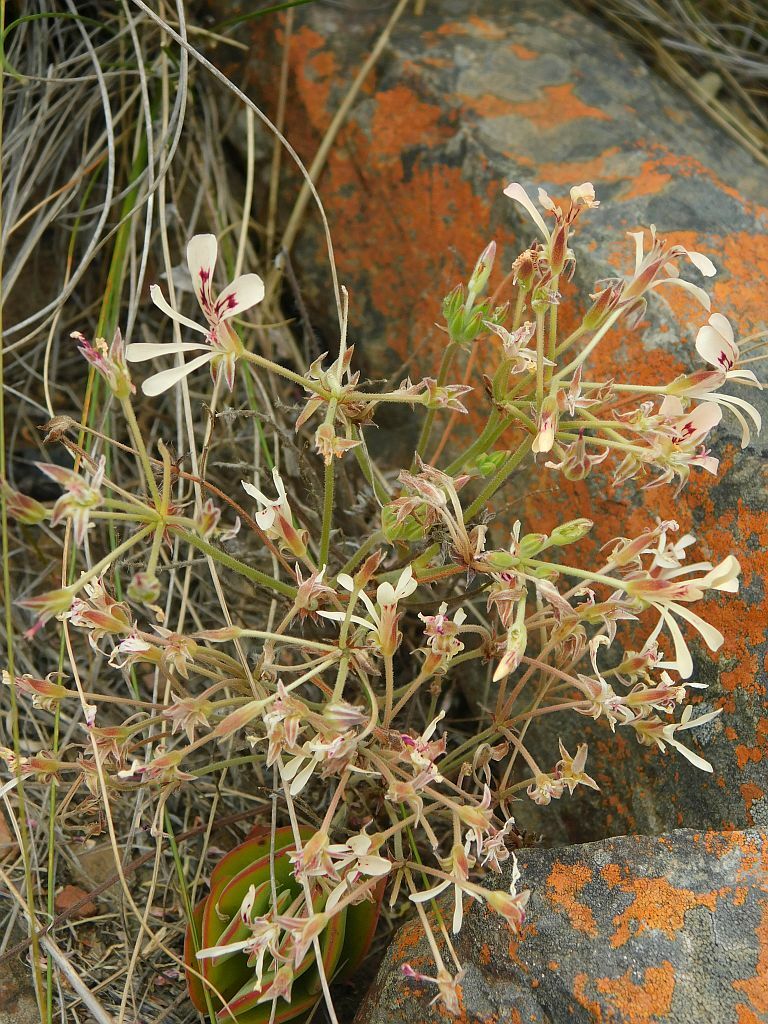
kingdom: Plantae
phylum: Tracheophyta
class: Magnoliopsida
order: Geraniales
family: Geraniaceae
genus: Pelargonium
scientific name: Pelargonium pinnatum
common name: Pinnated pelargonium
